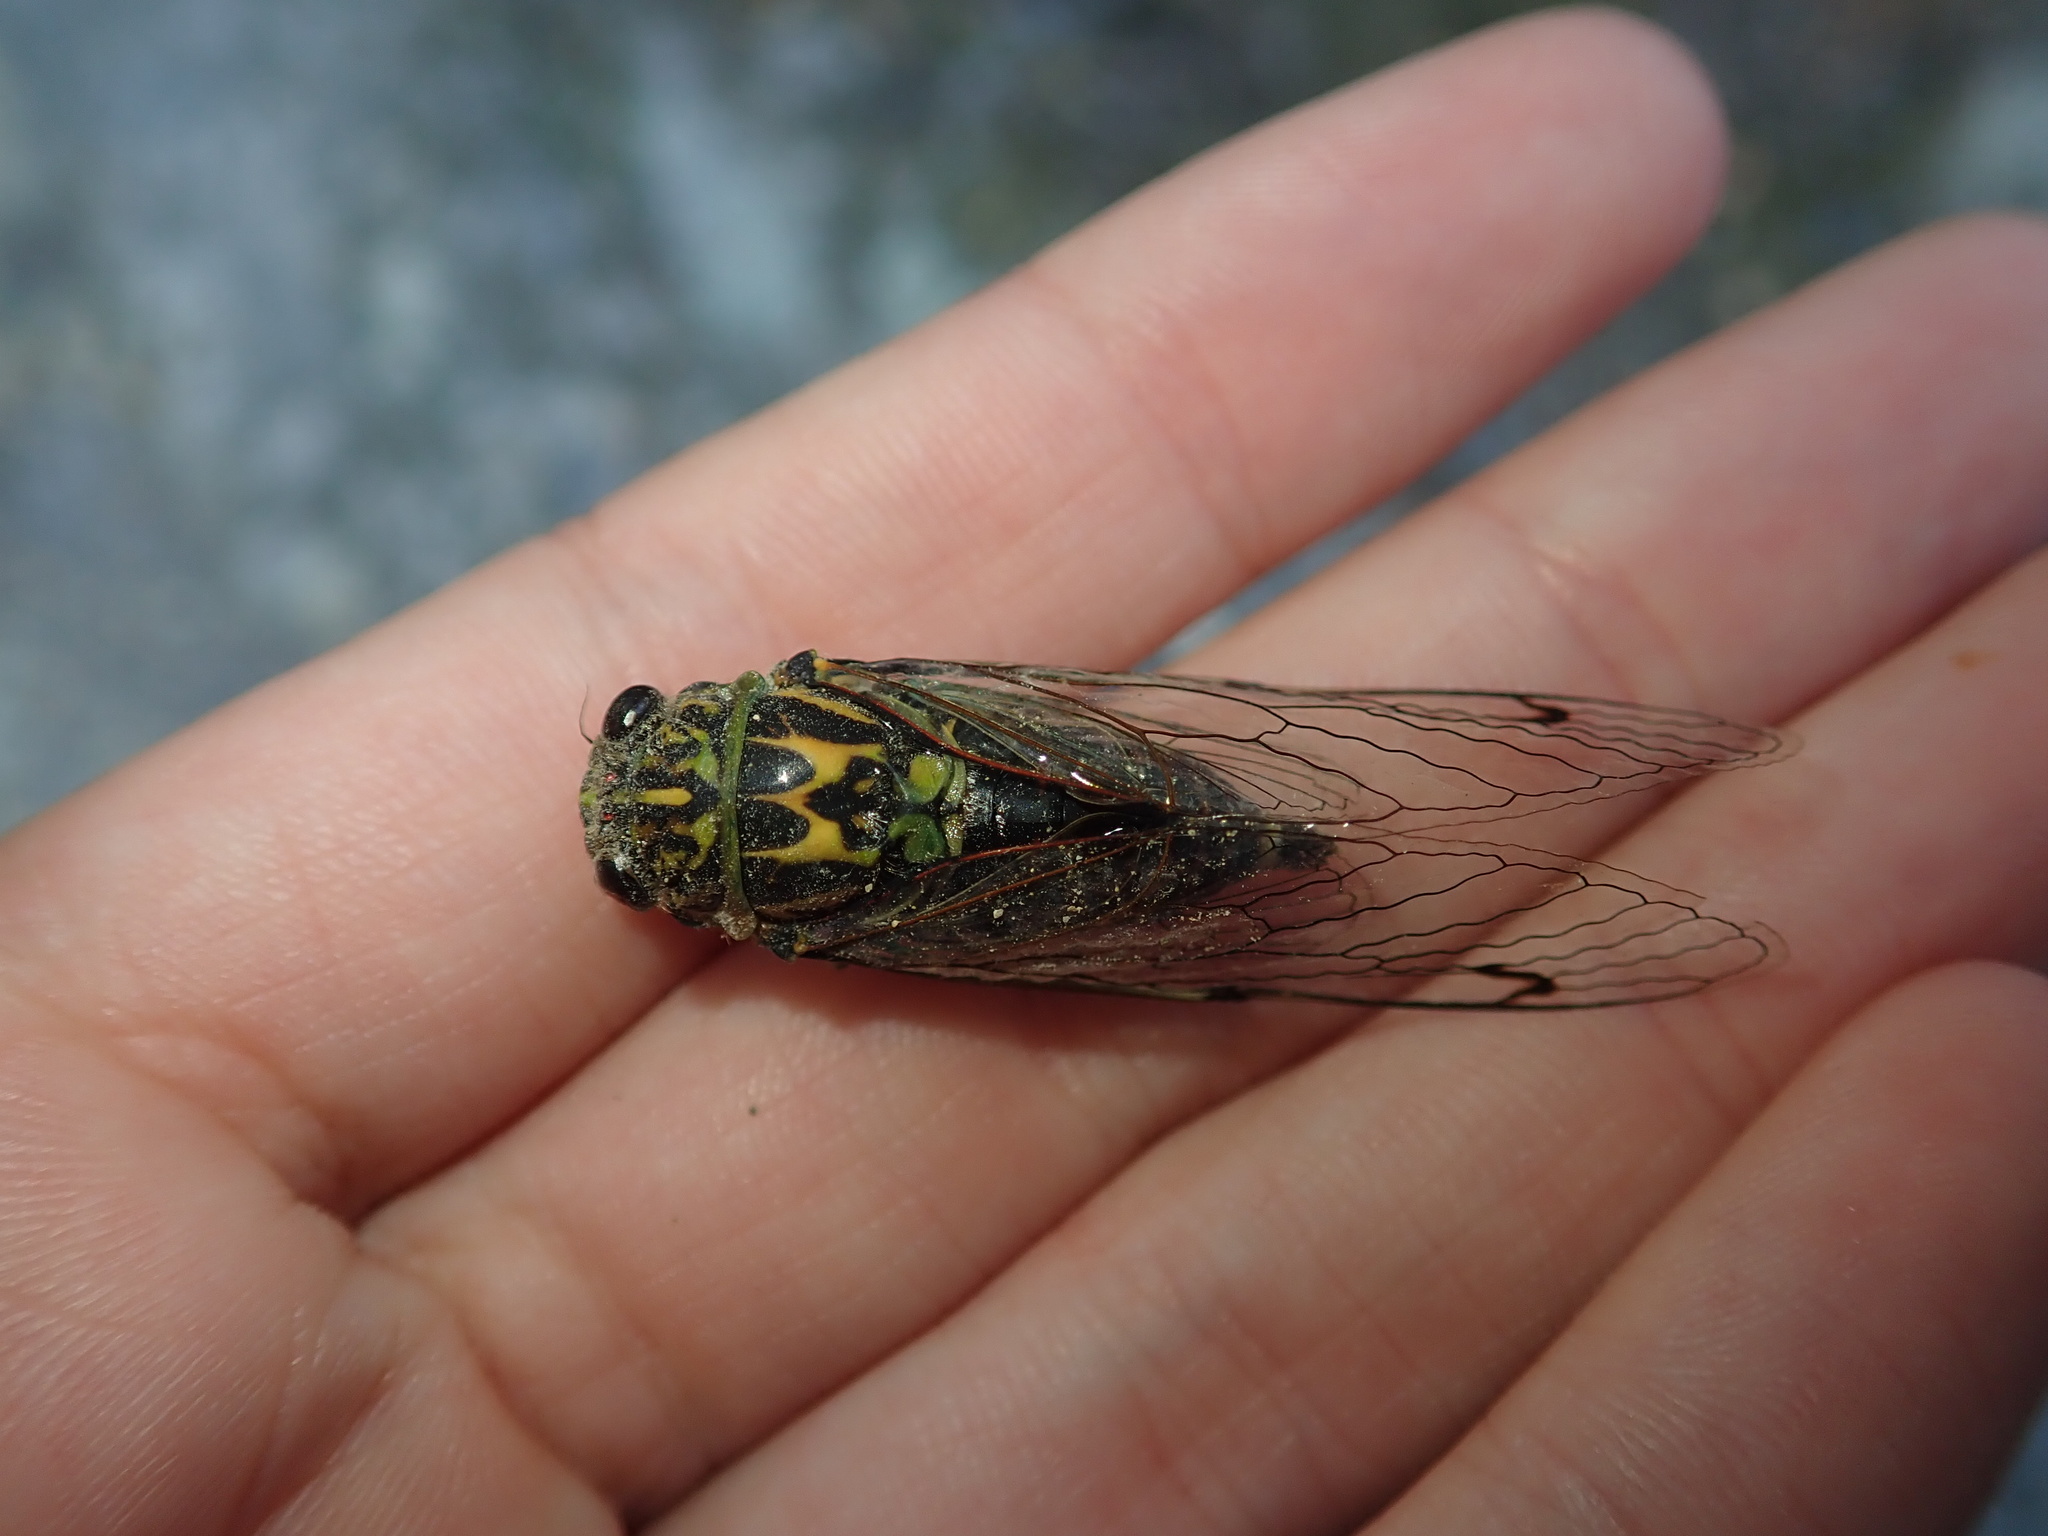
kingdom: Animalia
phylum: Arthropoda
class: Insecta
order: Hemiptera
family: Cicadidae
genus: Amphipsalta
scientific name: Amphipsalta zelandica
